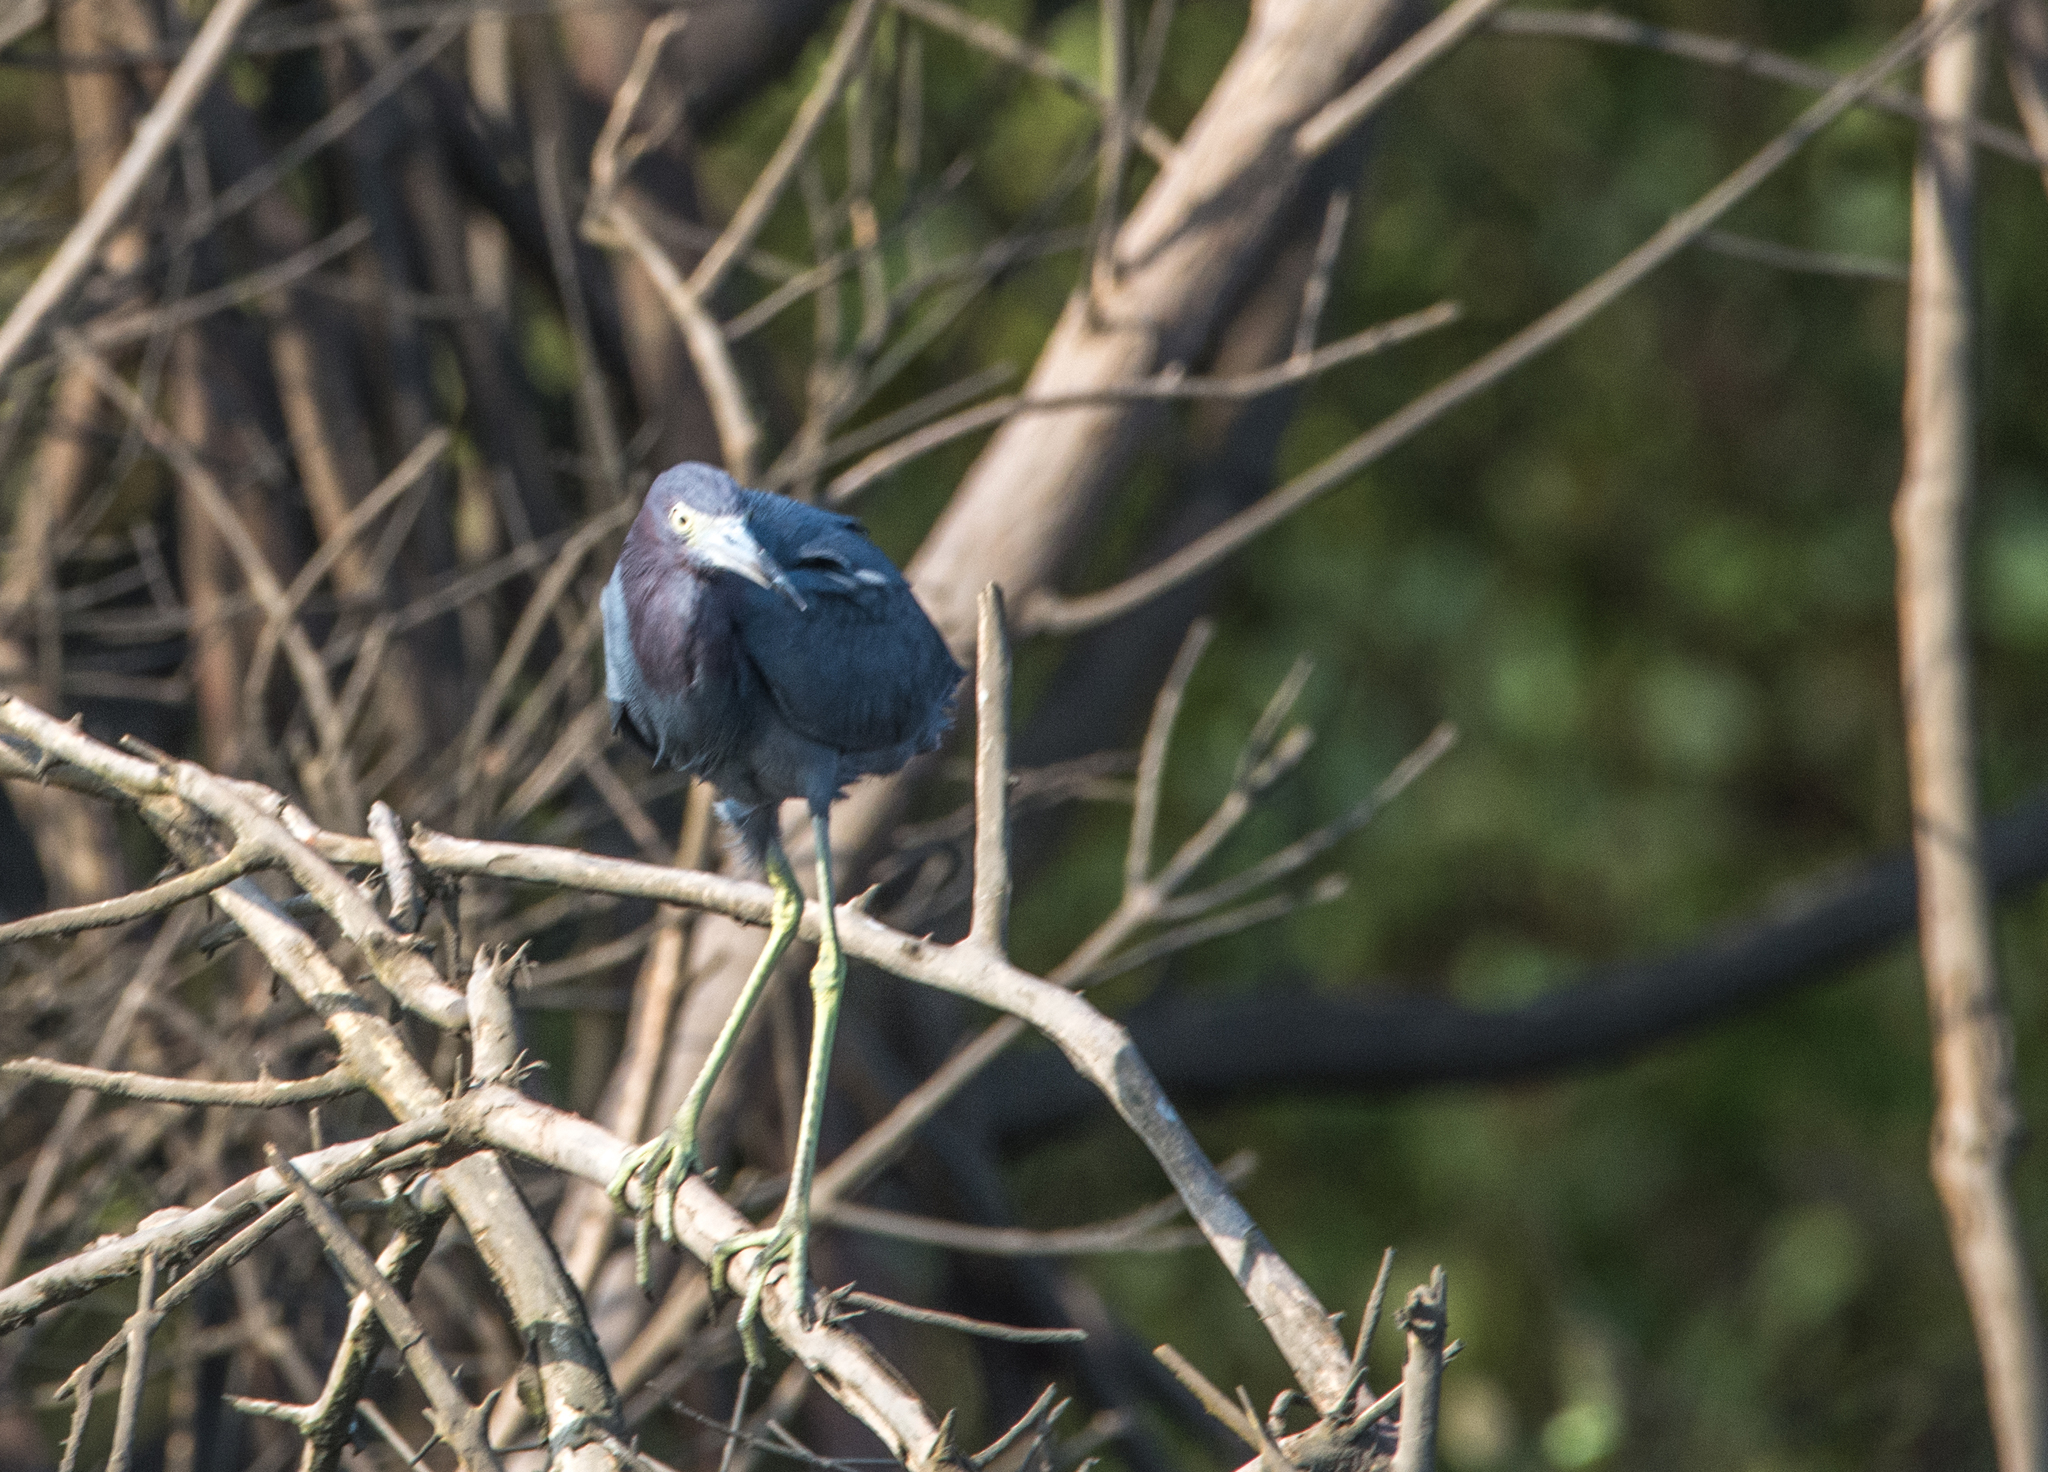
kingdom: Animalia
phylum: Chordata
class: Aves
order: Pelecaniformes
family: Ardeidae
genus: Egretta
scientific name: Egretta caerulea
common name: Little blue heron
